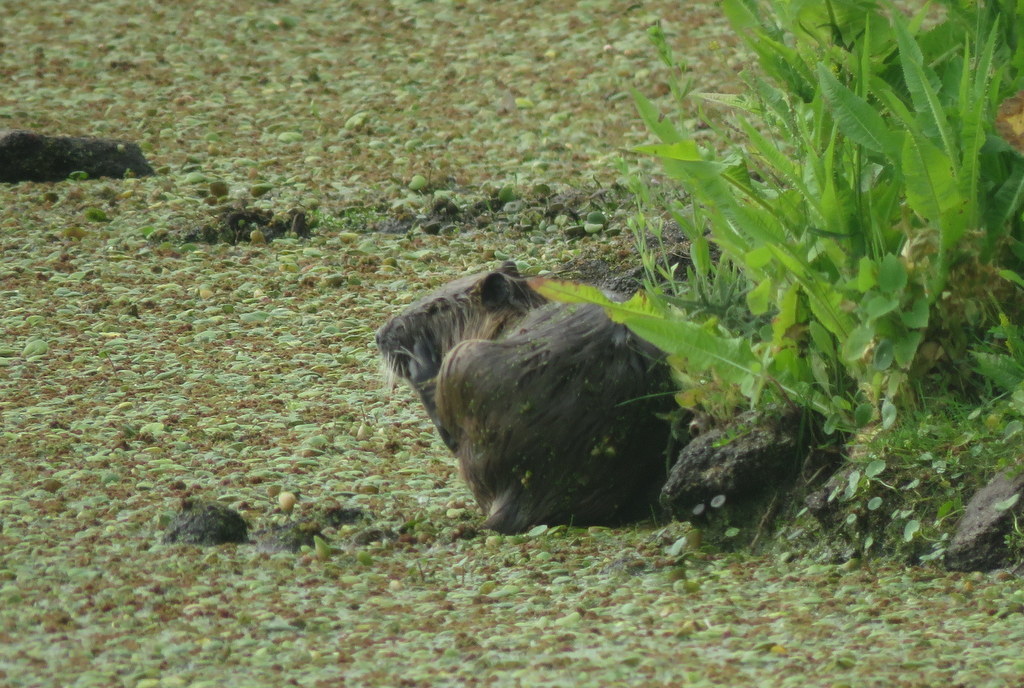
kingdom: Animalia
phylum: Chordata
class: Mammalia
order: Rodentia
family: Myocastoridae
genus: Myocastor
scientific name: Myocastor coypus
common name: Coypu
